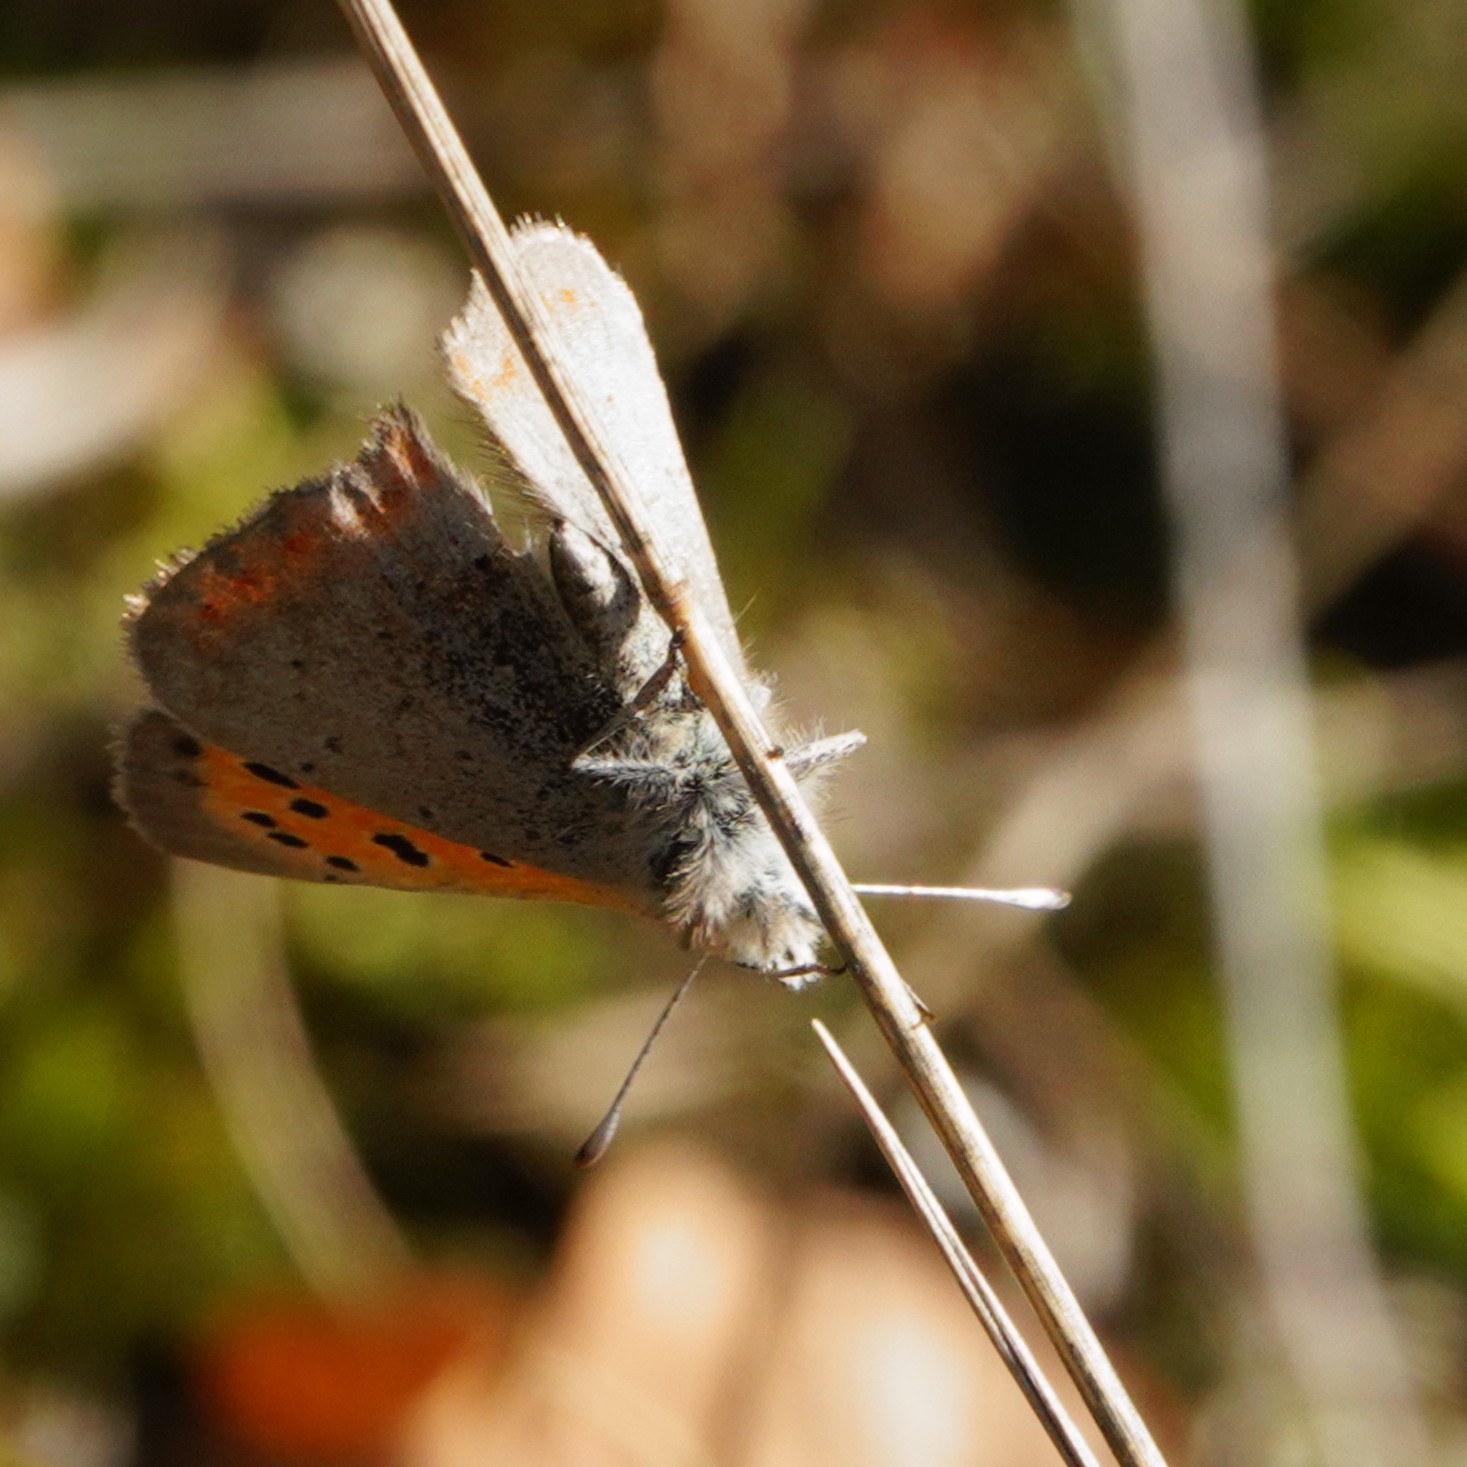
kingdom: Animalia
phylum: Arthropoda
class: Insecta
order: Lepidoptera
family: Lycaenidae
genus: Lycaena
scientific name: Lycaena phlaeas
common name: Small copper
